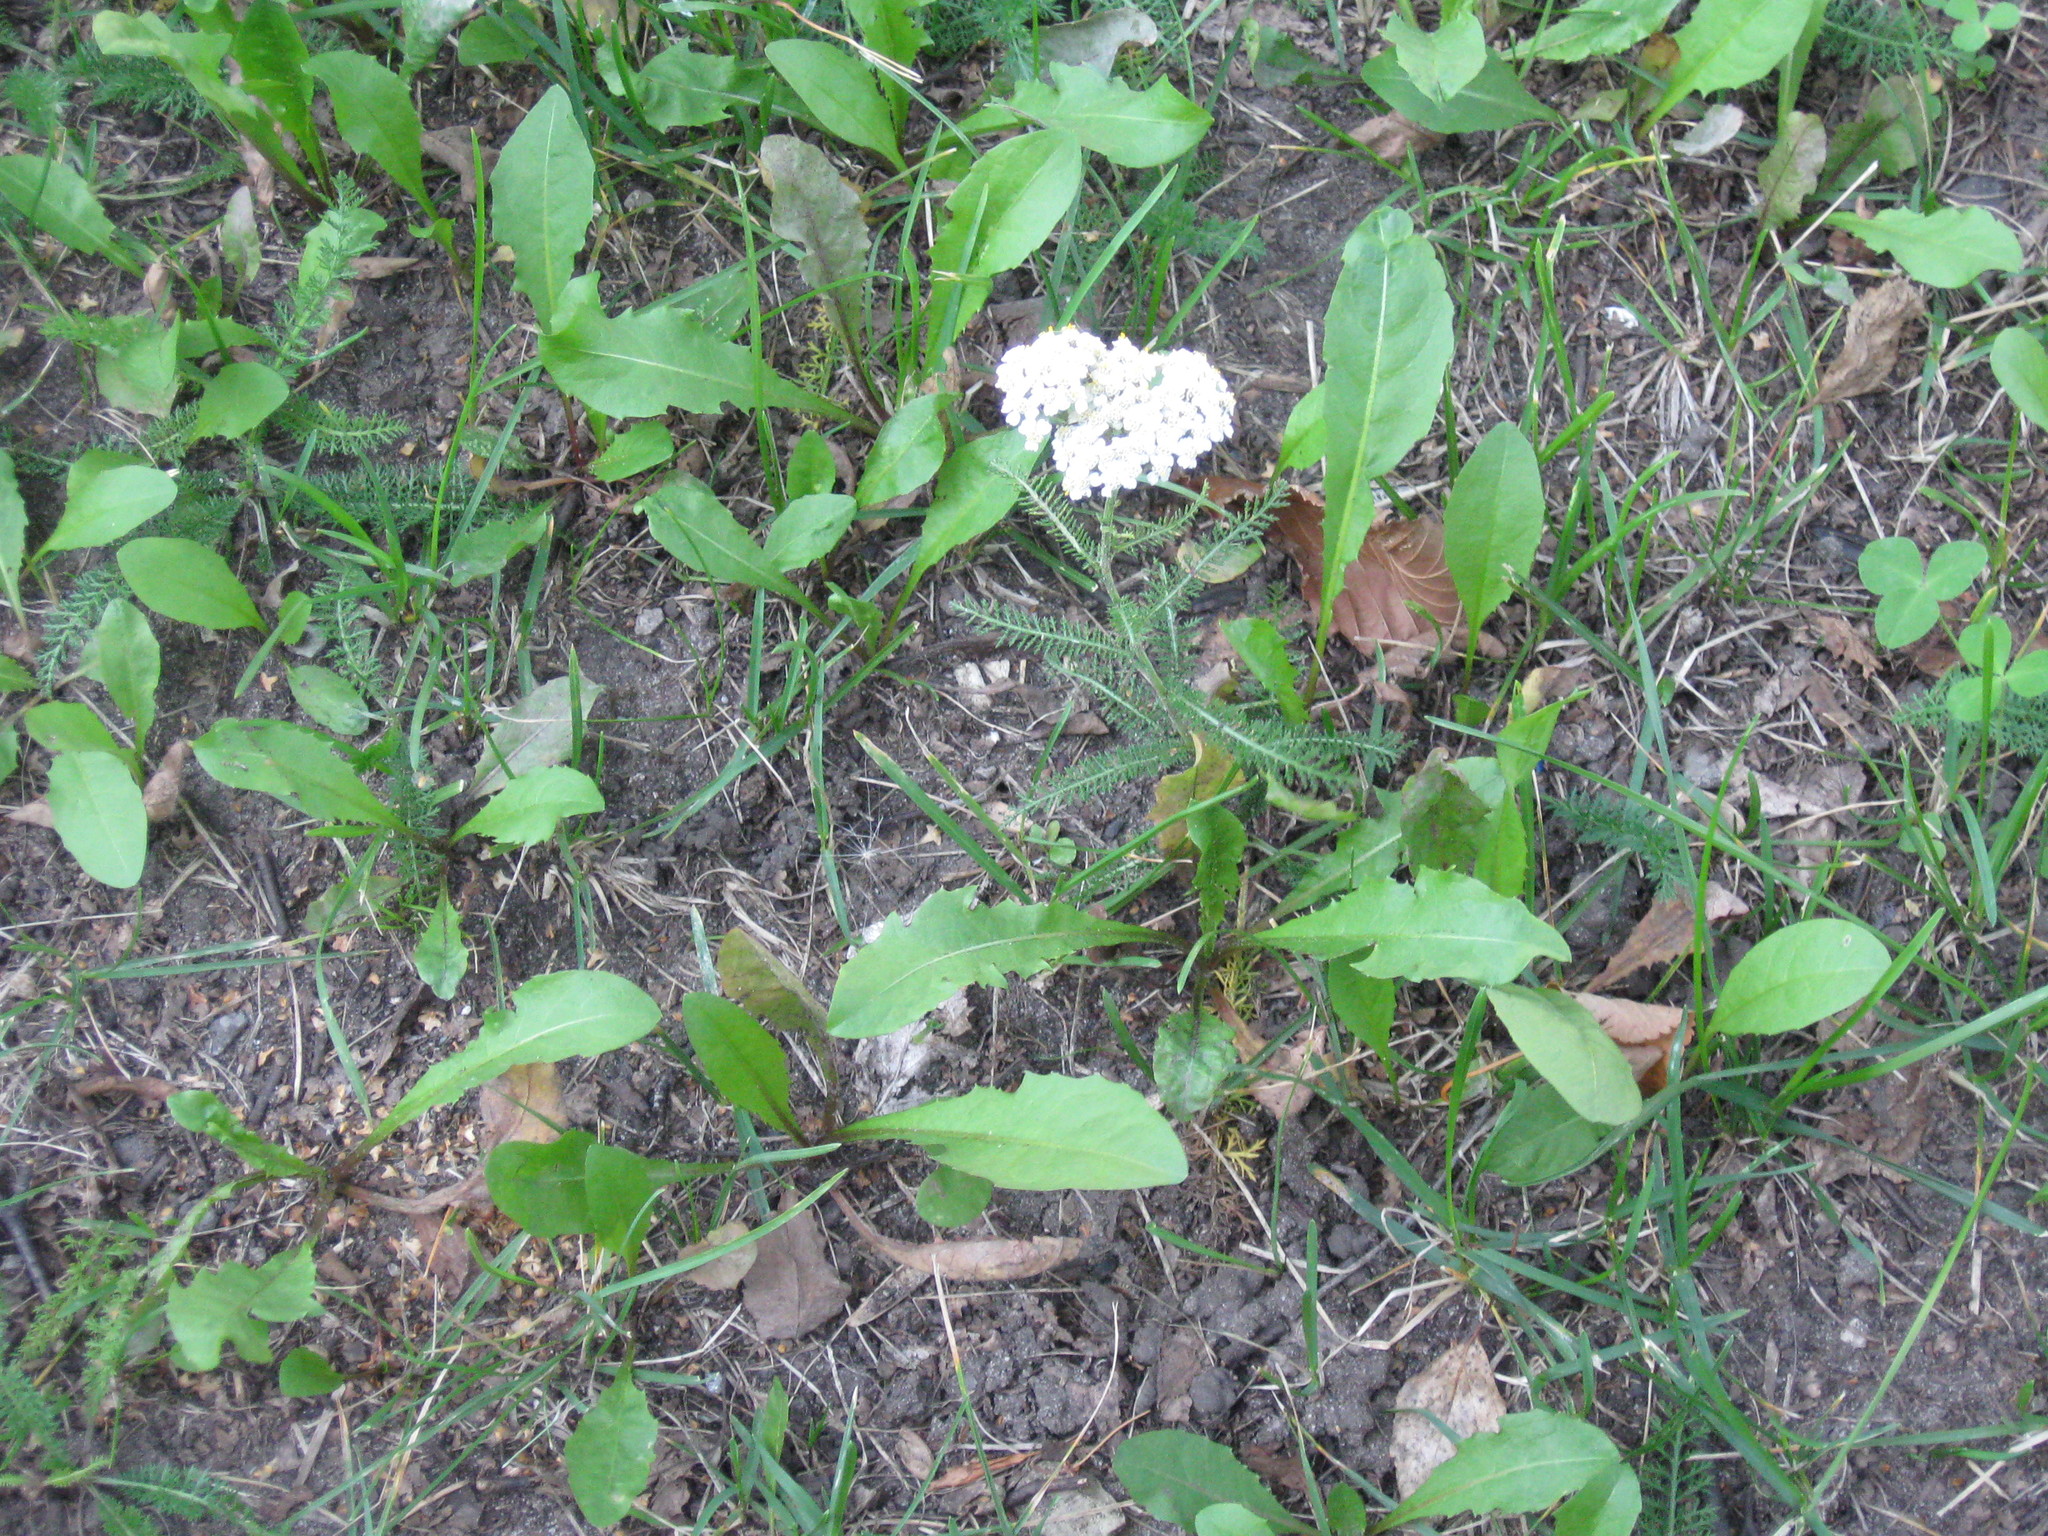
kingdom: Plantae
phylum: Tracheophyta
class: Magnoliopsida
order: Asterales
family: Asteraceae
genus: Achillea
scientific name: Achillea millefolium
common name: Yarrow
